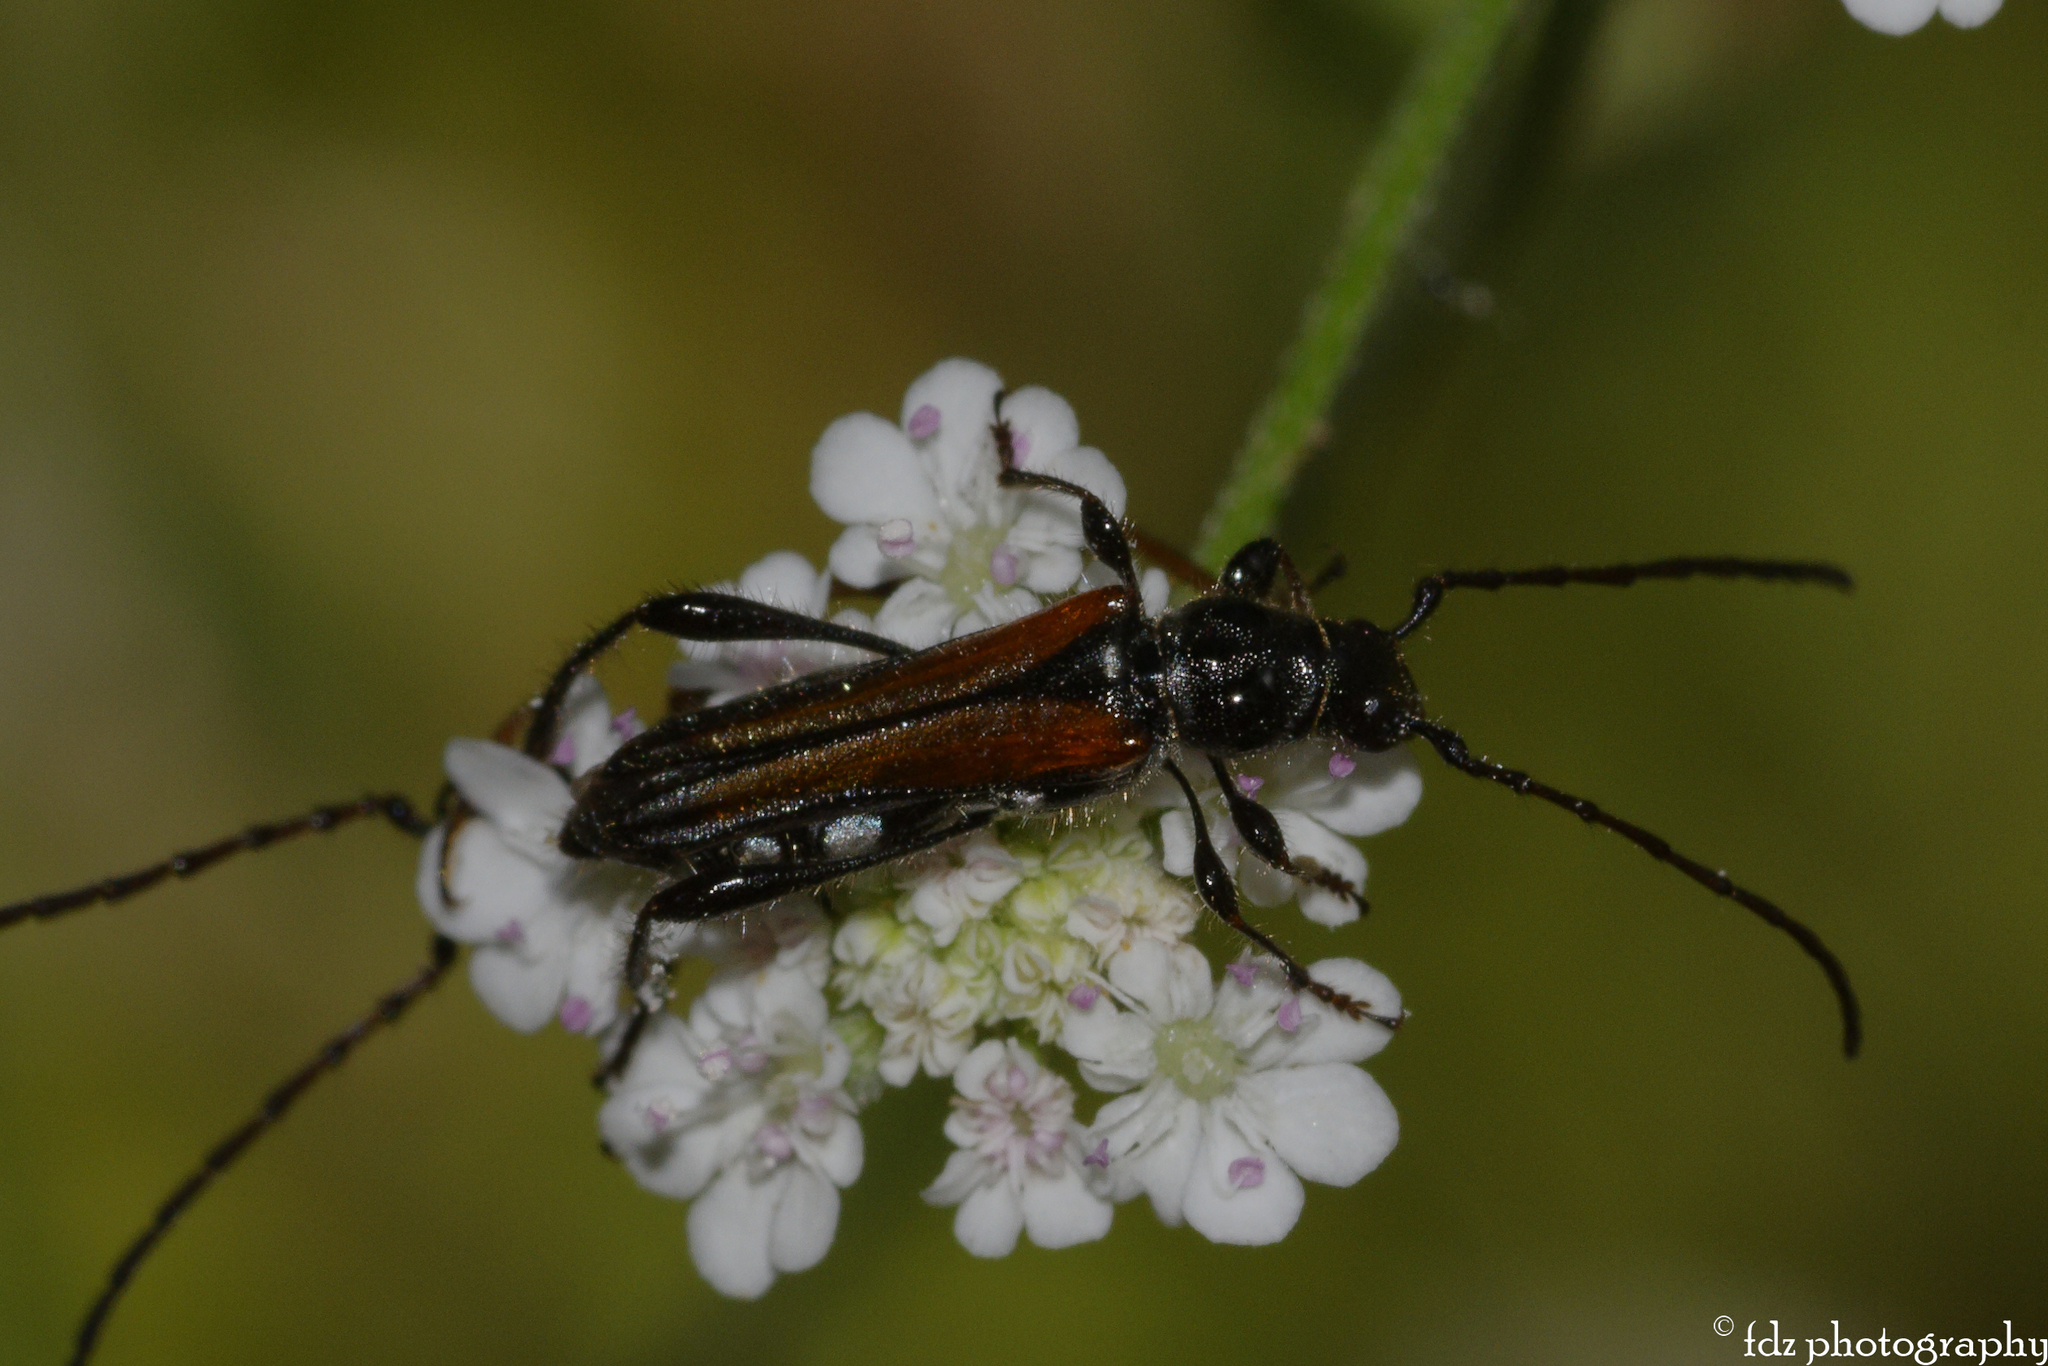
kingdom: Animalia
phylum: Arthropoda
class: Insecta
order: Coleoptera
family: Cerambycidae
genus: Stenopterus
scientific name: Stenopterus ater
